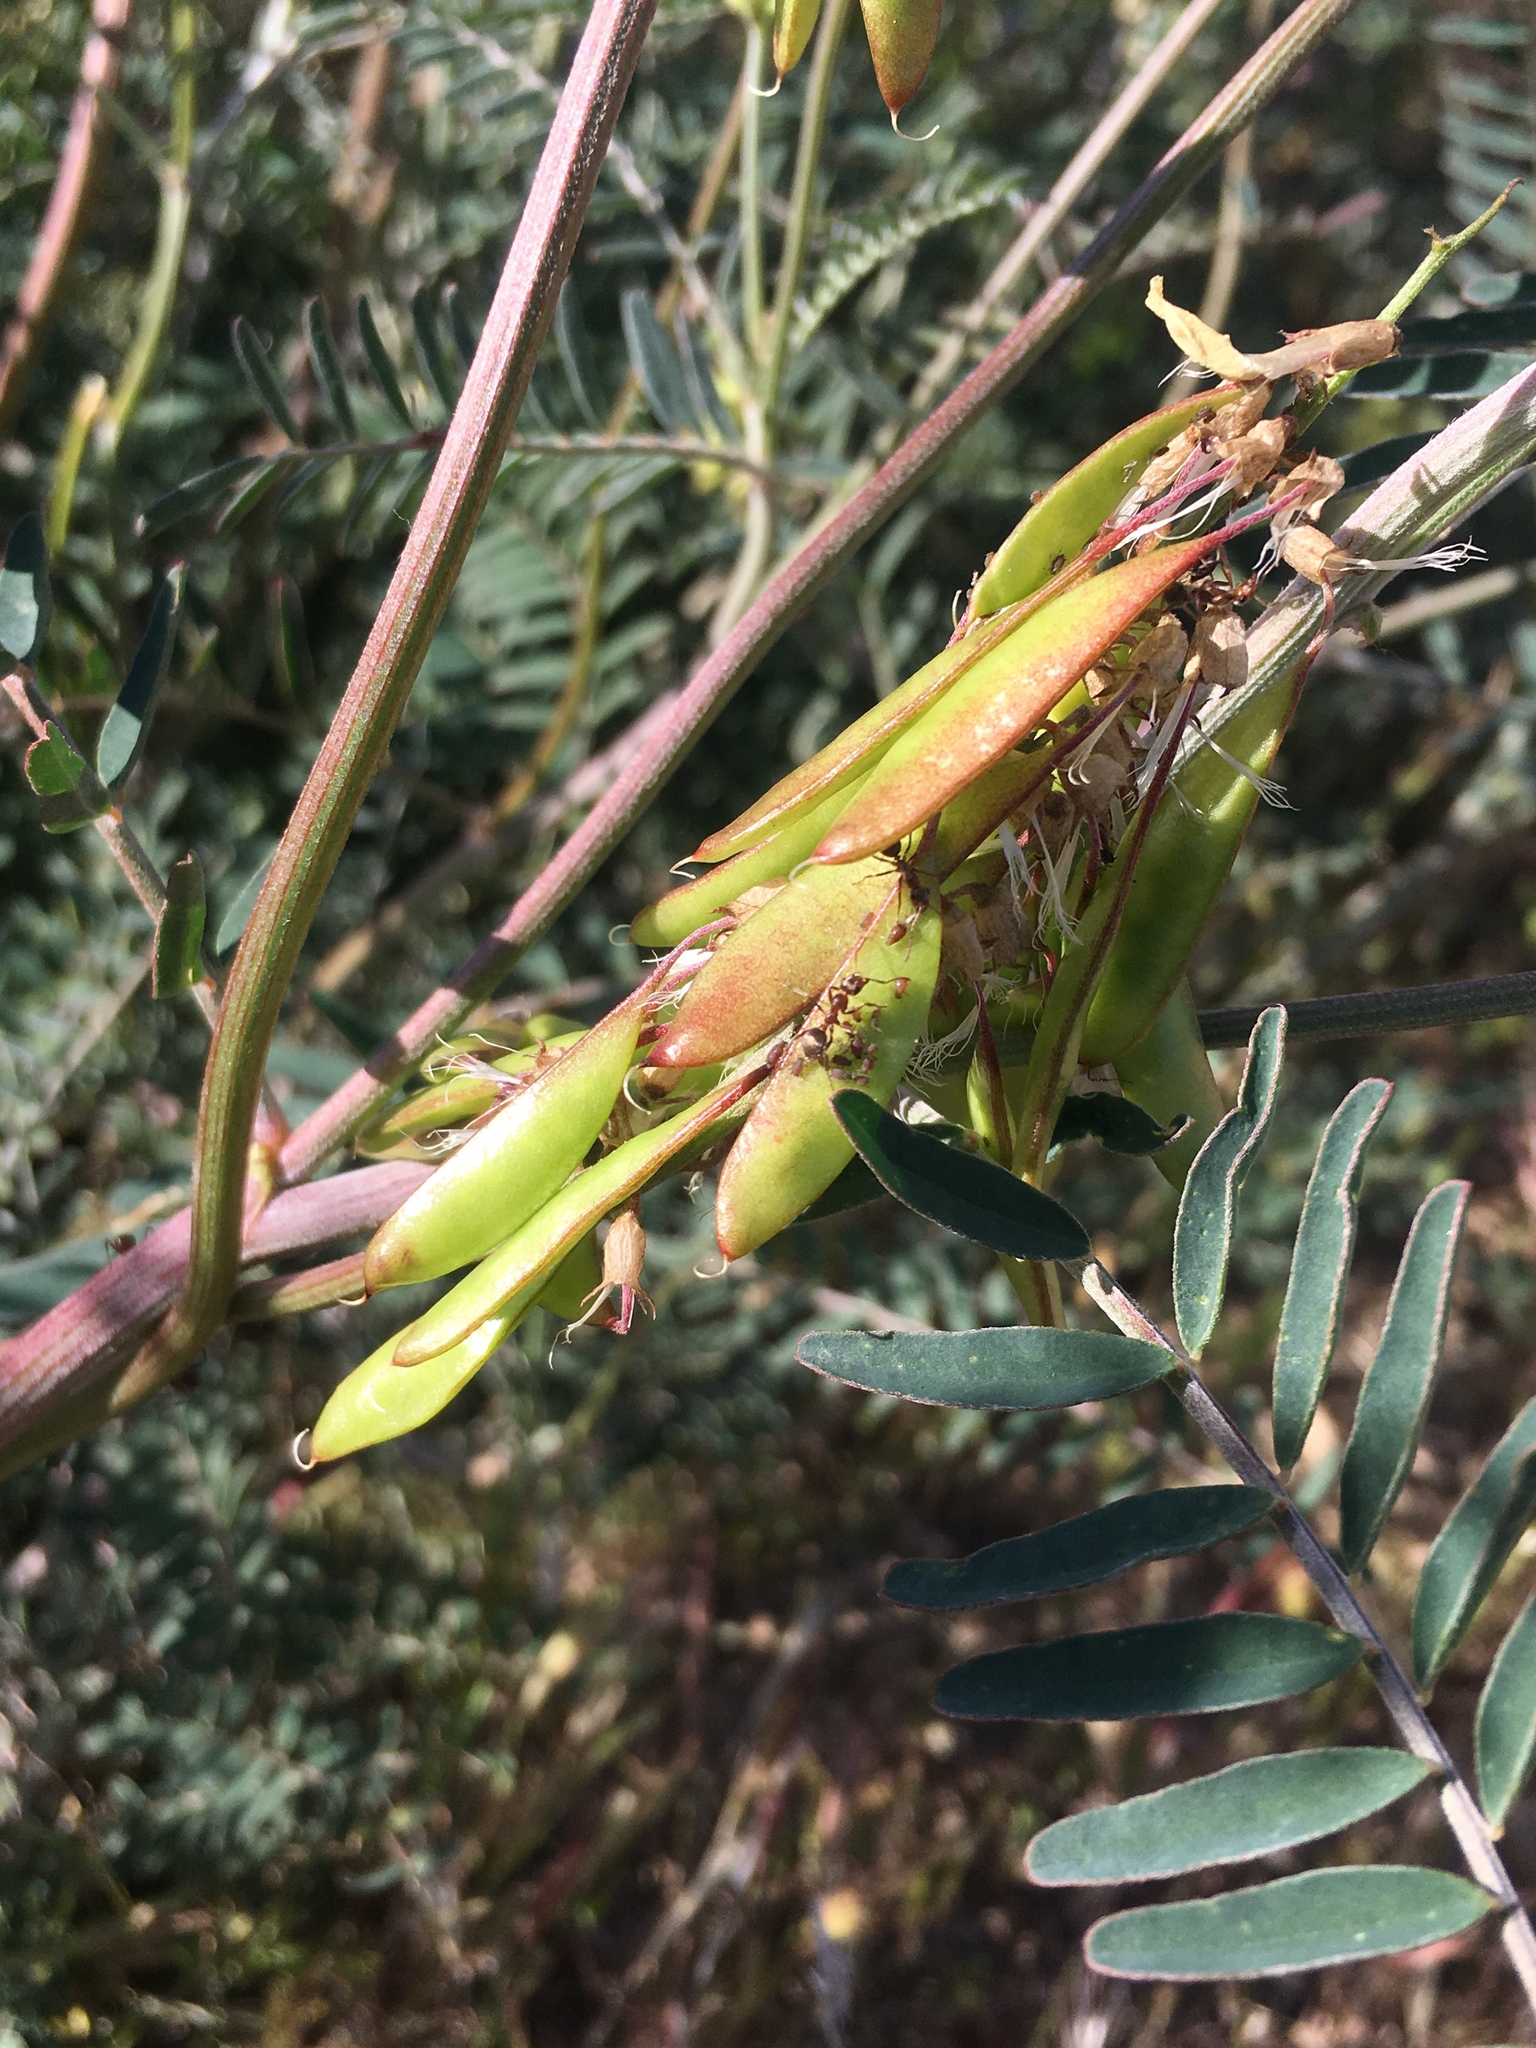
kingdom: Plantae
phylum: Tracheophyta
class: Magnoliopsida
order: Fabales
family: Fabaceae
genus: Astragalus
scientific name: Astragalus trichopodus
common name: Santa barbara milk-vetch
